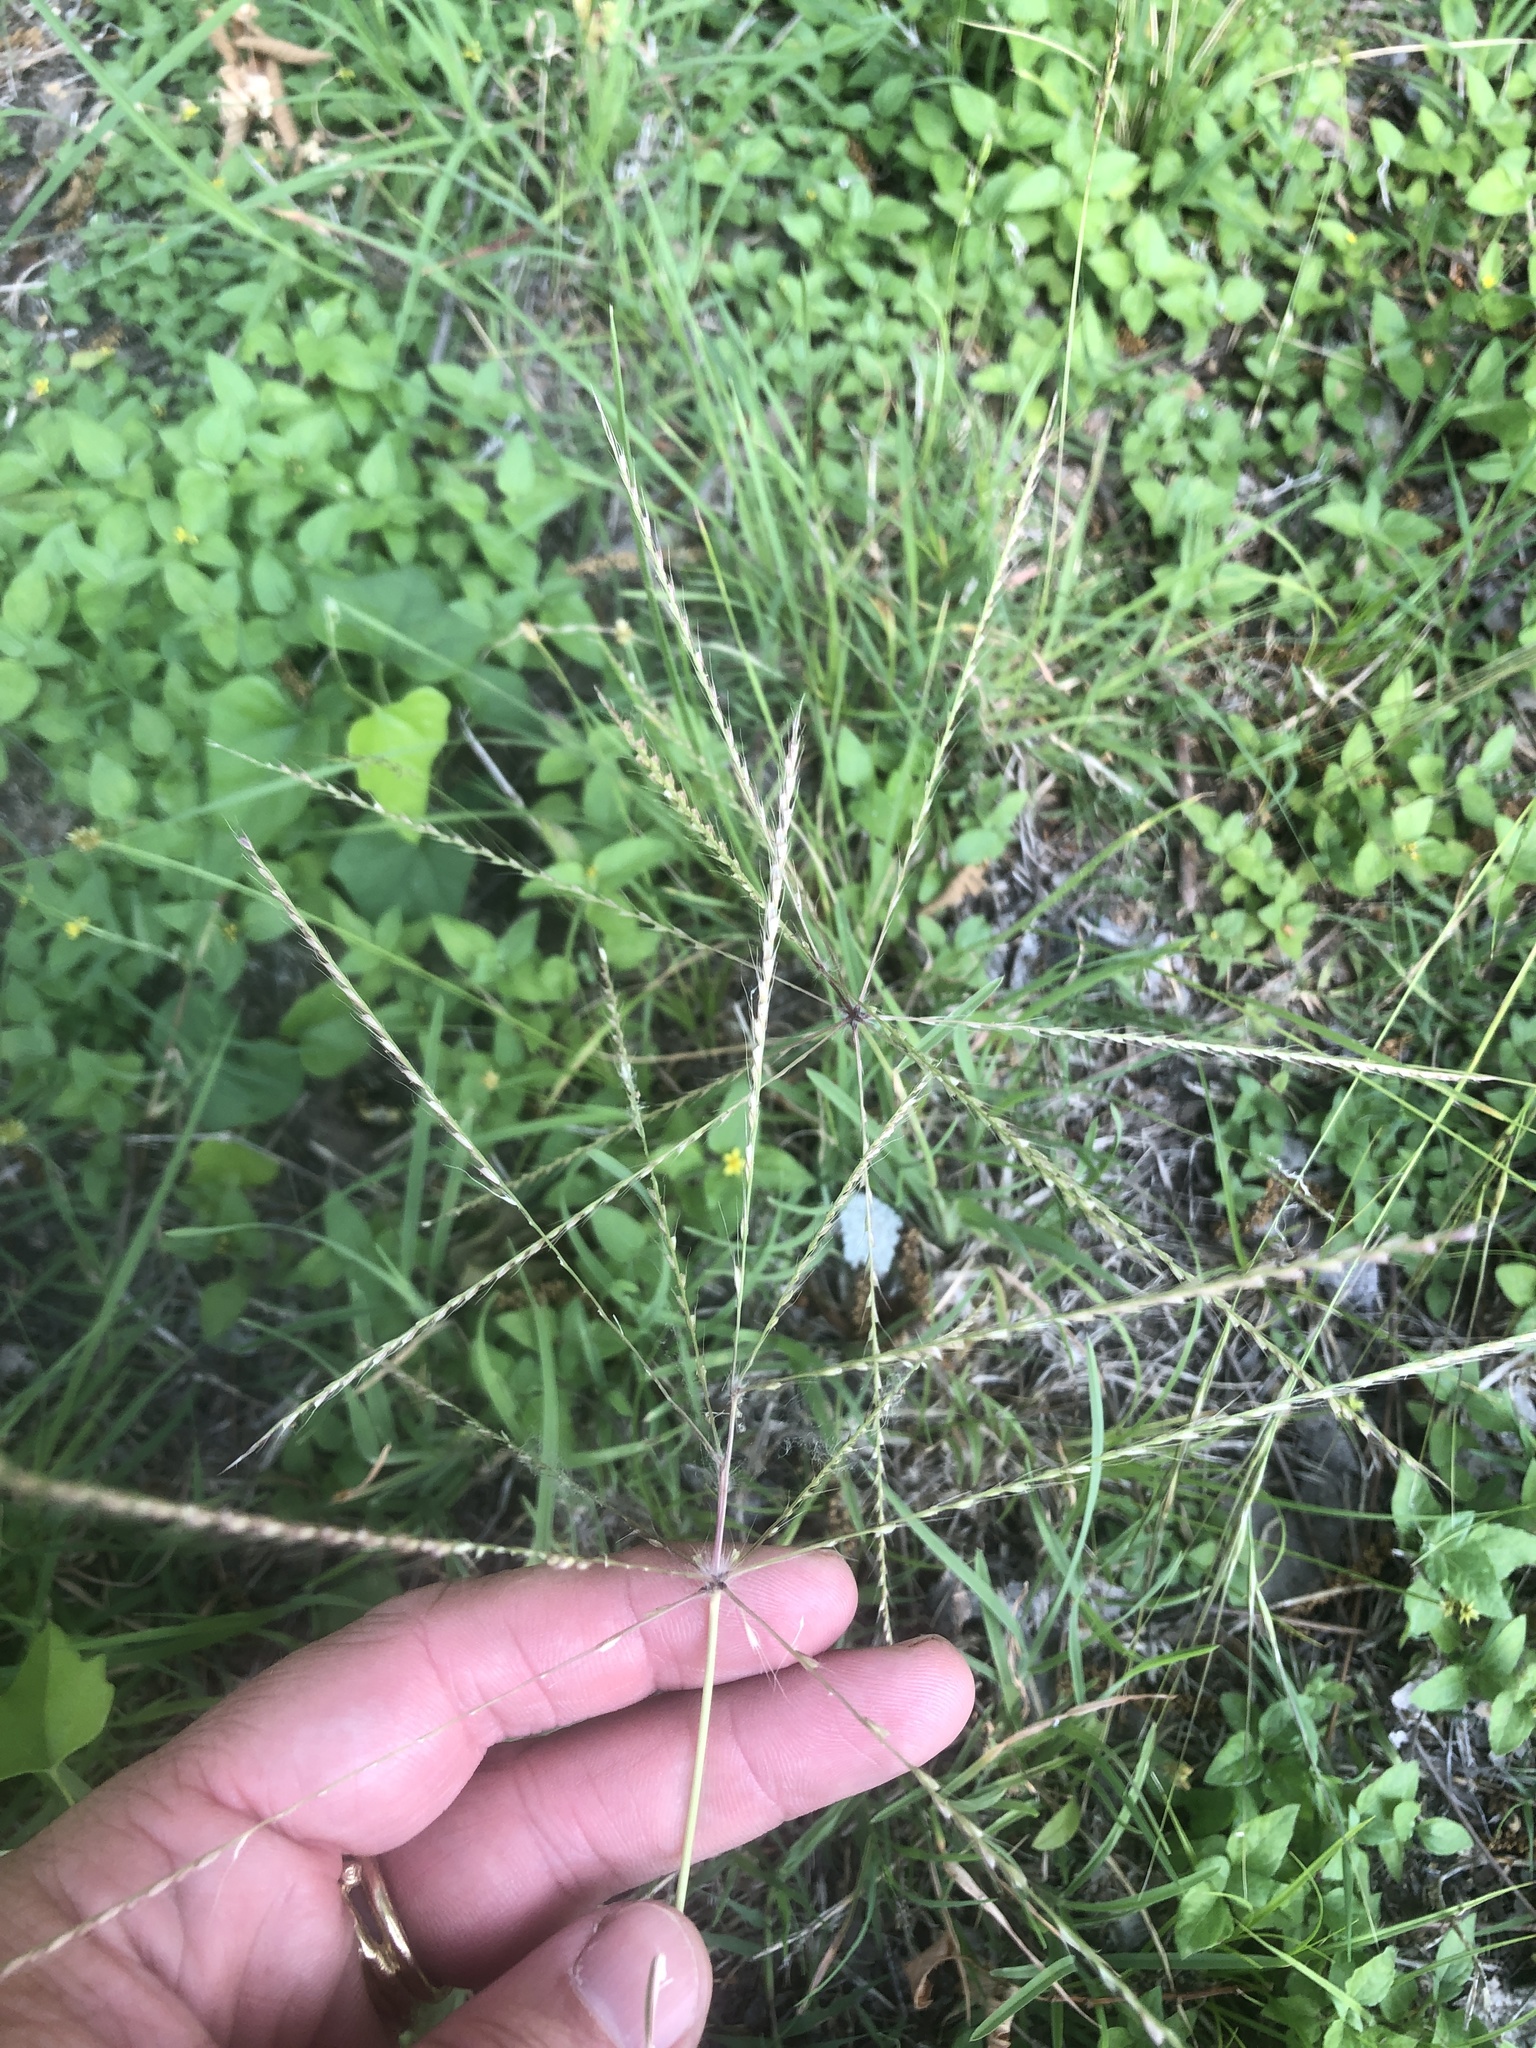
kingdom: Plantae
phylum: Tracheophyta
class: Liliopsida
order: Poales
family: Poaceae
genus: Chloris
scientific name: Chloris verticillata
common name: Tumble windmill grass
